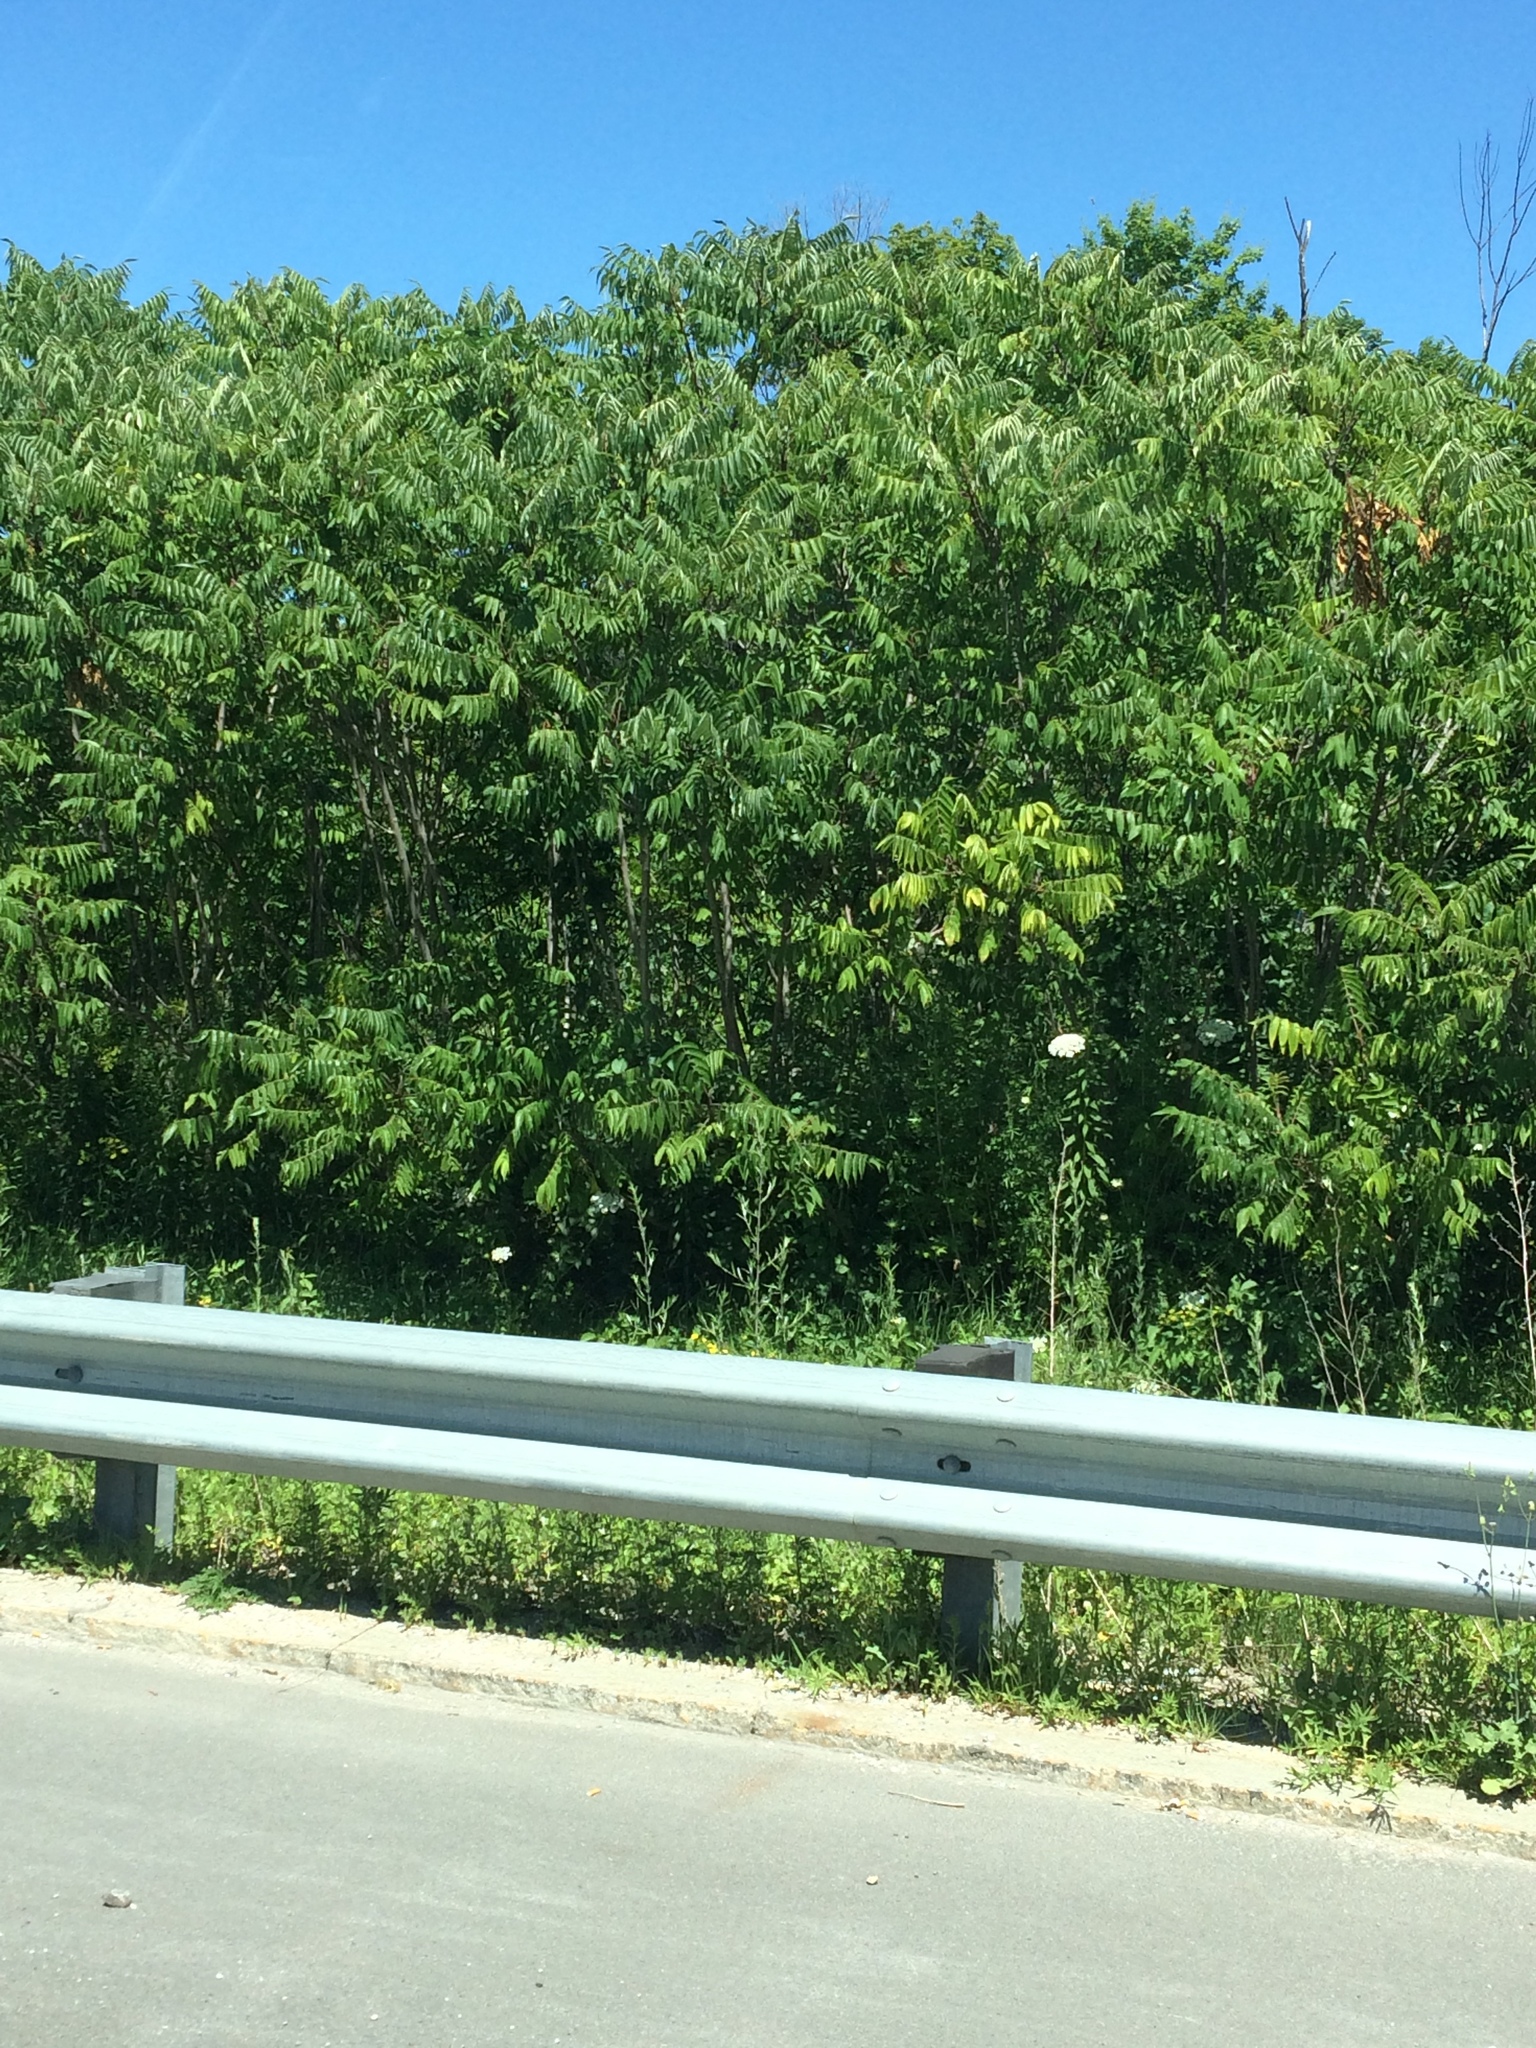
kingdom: Plantae
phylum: Tracheophyta
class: Magnoliopsida
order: Sapindales
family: Anacardiaceae
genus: Rhus
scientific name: Rhus typhina
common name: Staghorn sumac
